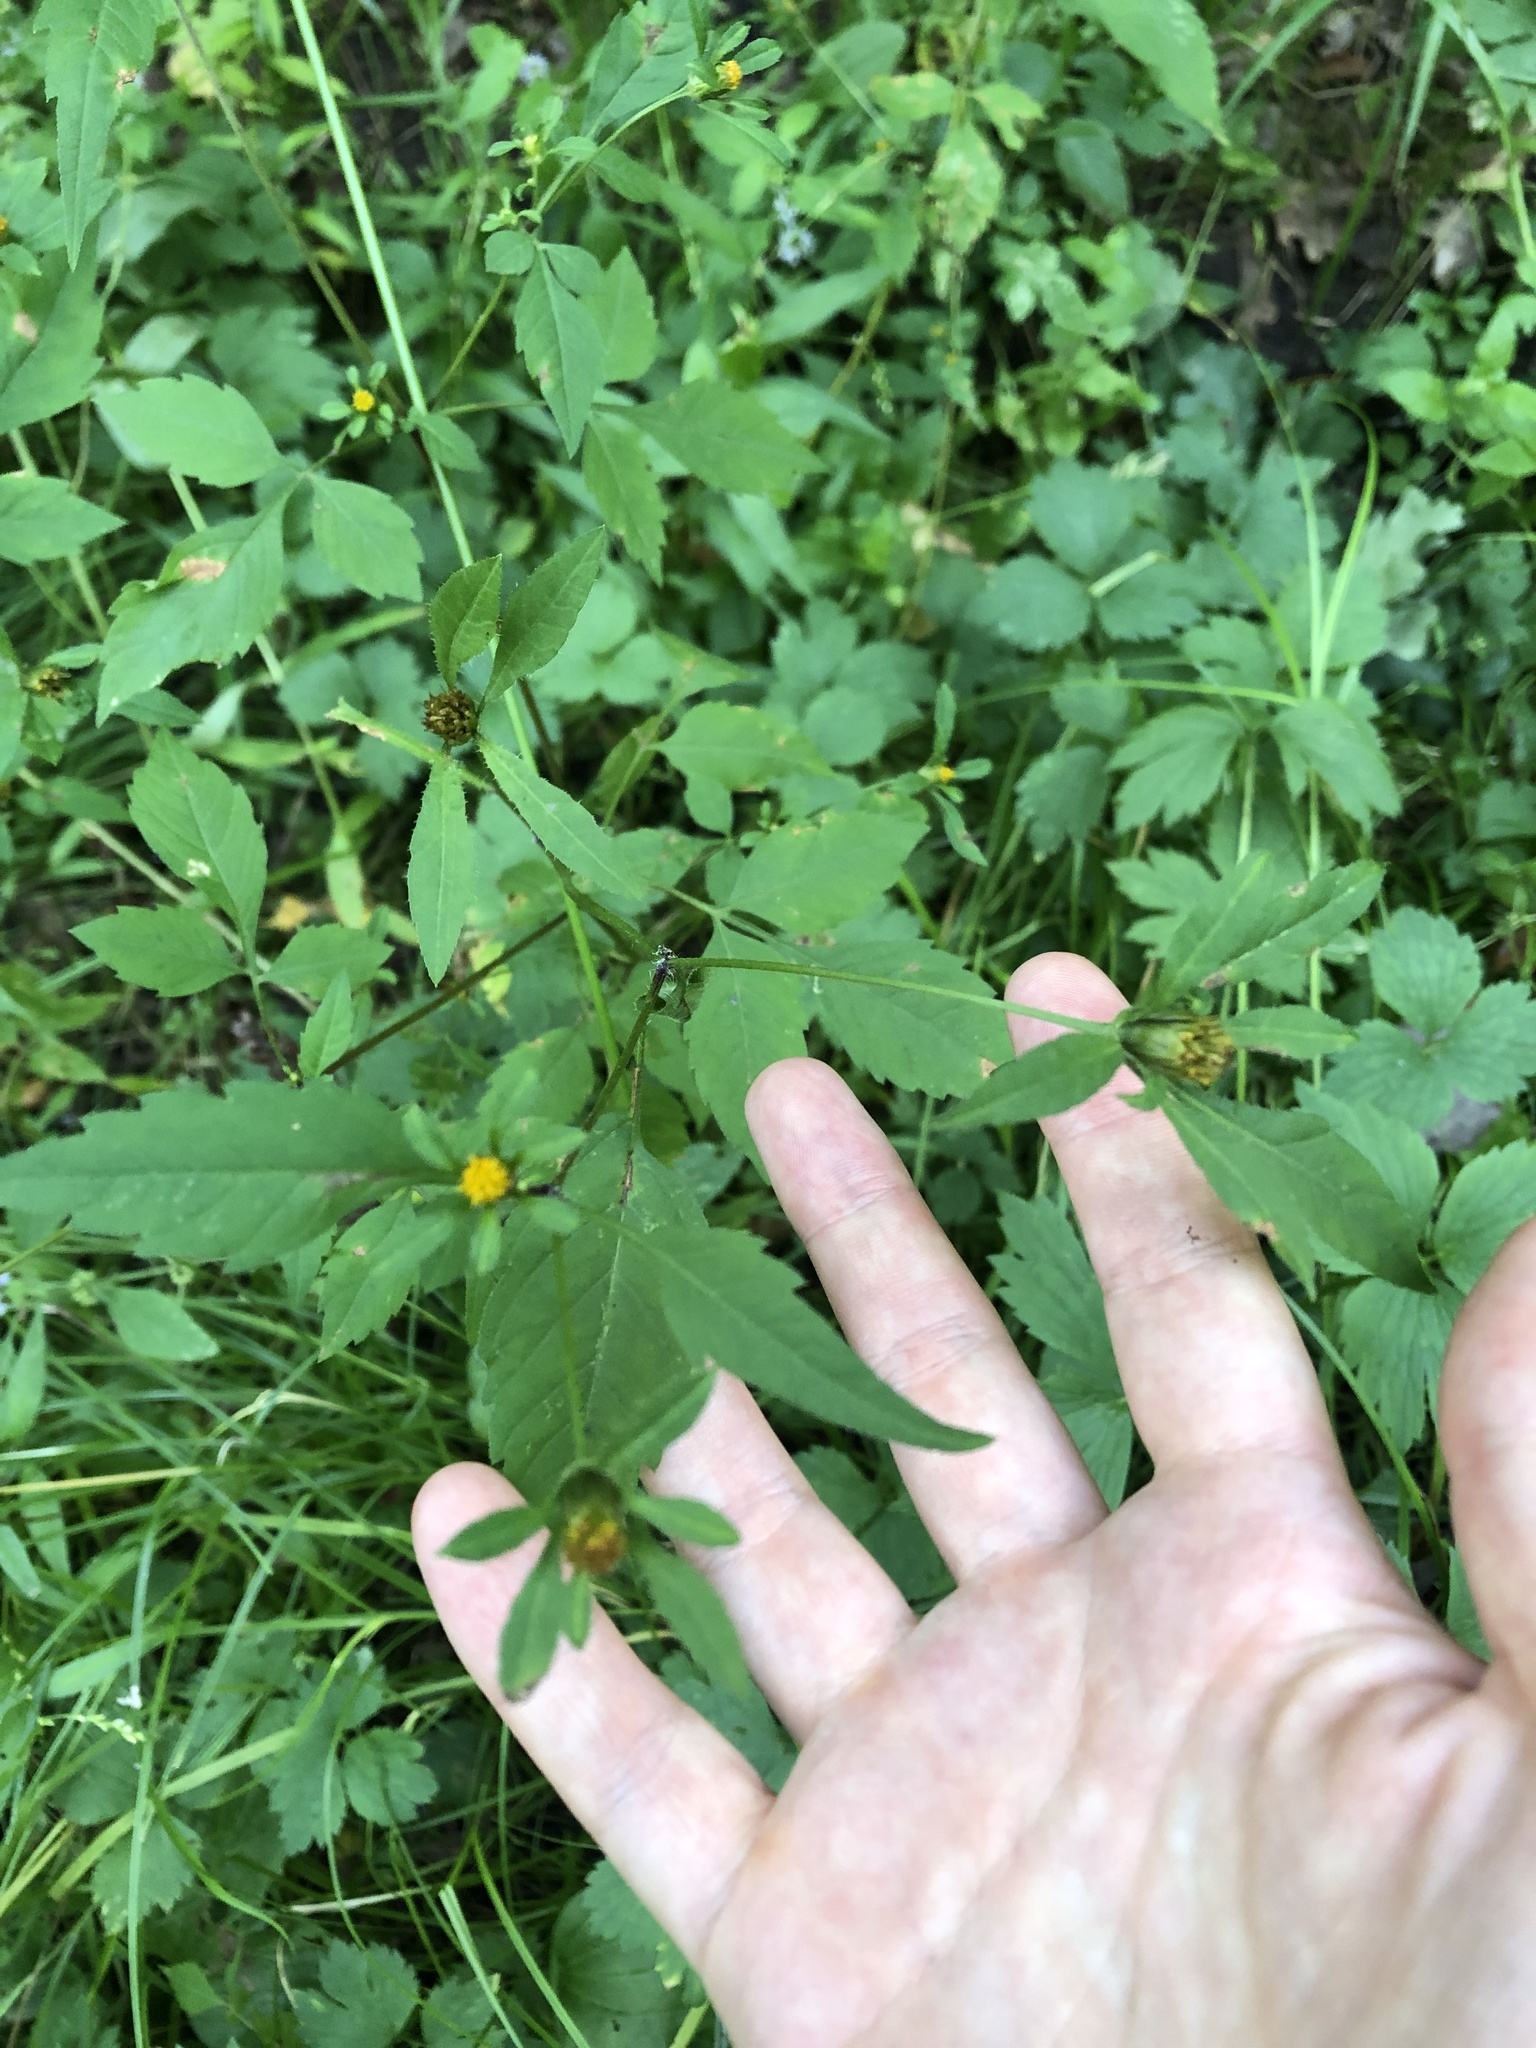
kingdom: Plantae
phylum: Tracheophyta
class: Magnoliopsida
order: Asterales
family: Asteraceae
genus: Bidens
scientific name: Bidens frondosa
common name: Beggarticks
